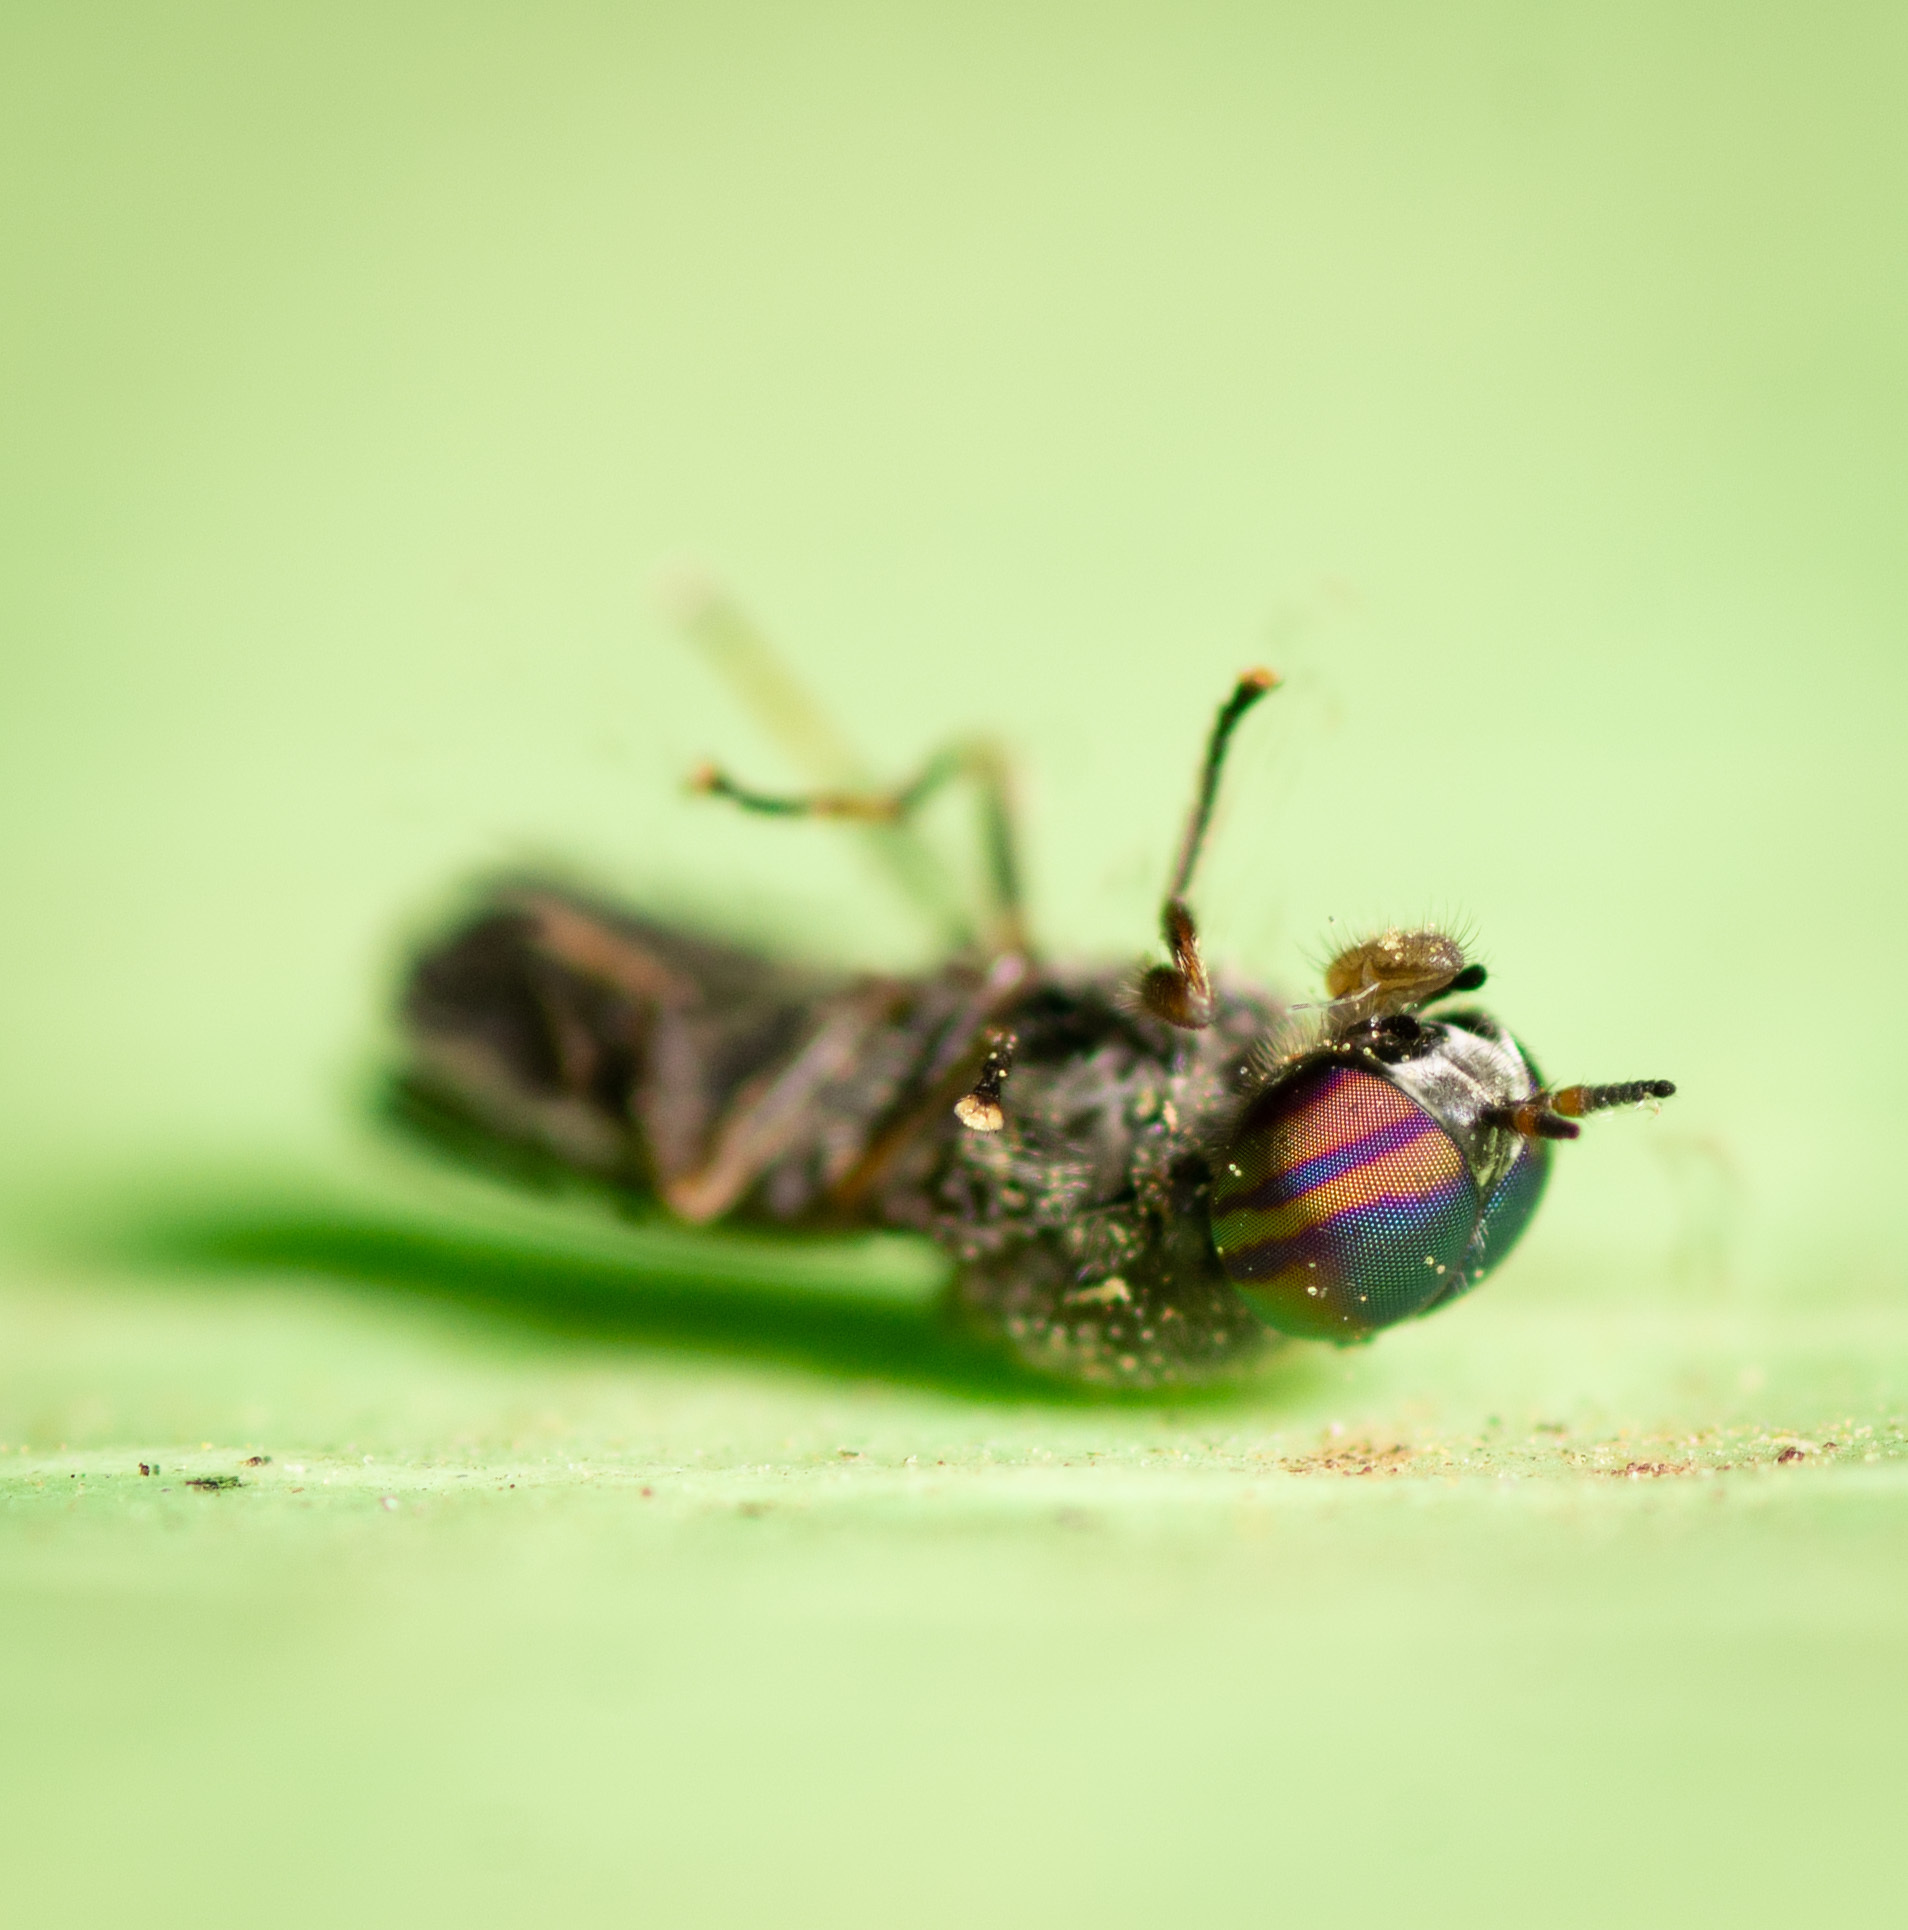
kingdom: Animalia
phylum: Arthropoda
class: Insecta
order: Diptera
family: Stratiomyidae
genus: Allognosta
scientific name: Allognosta obscuriventris
